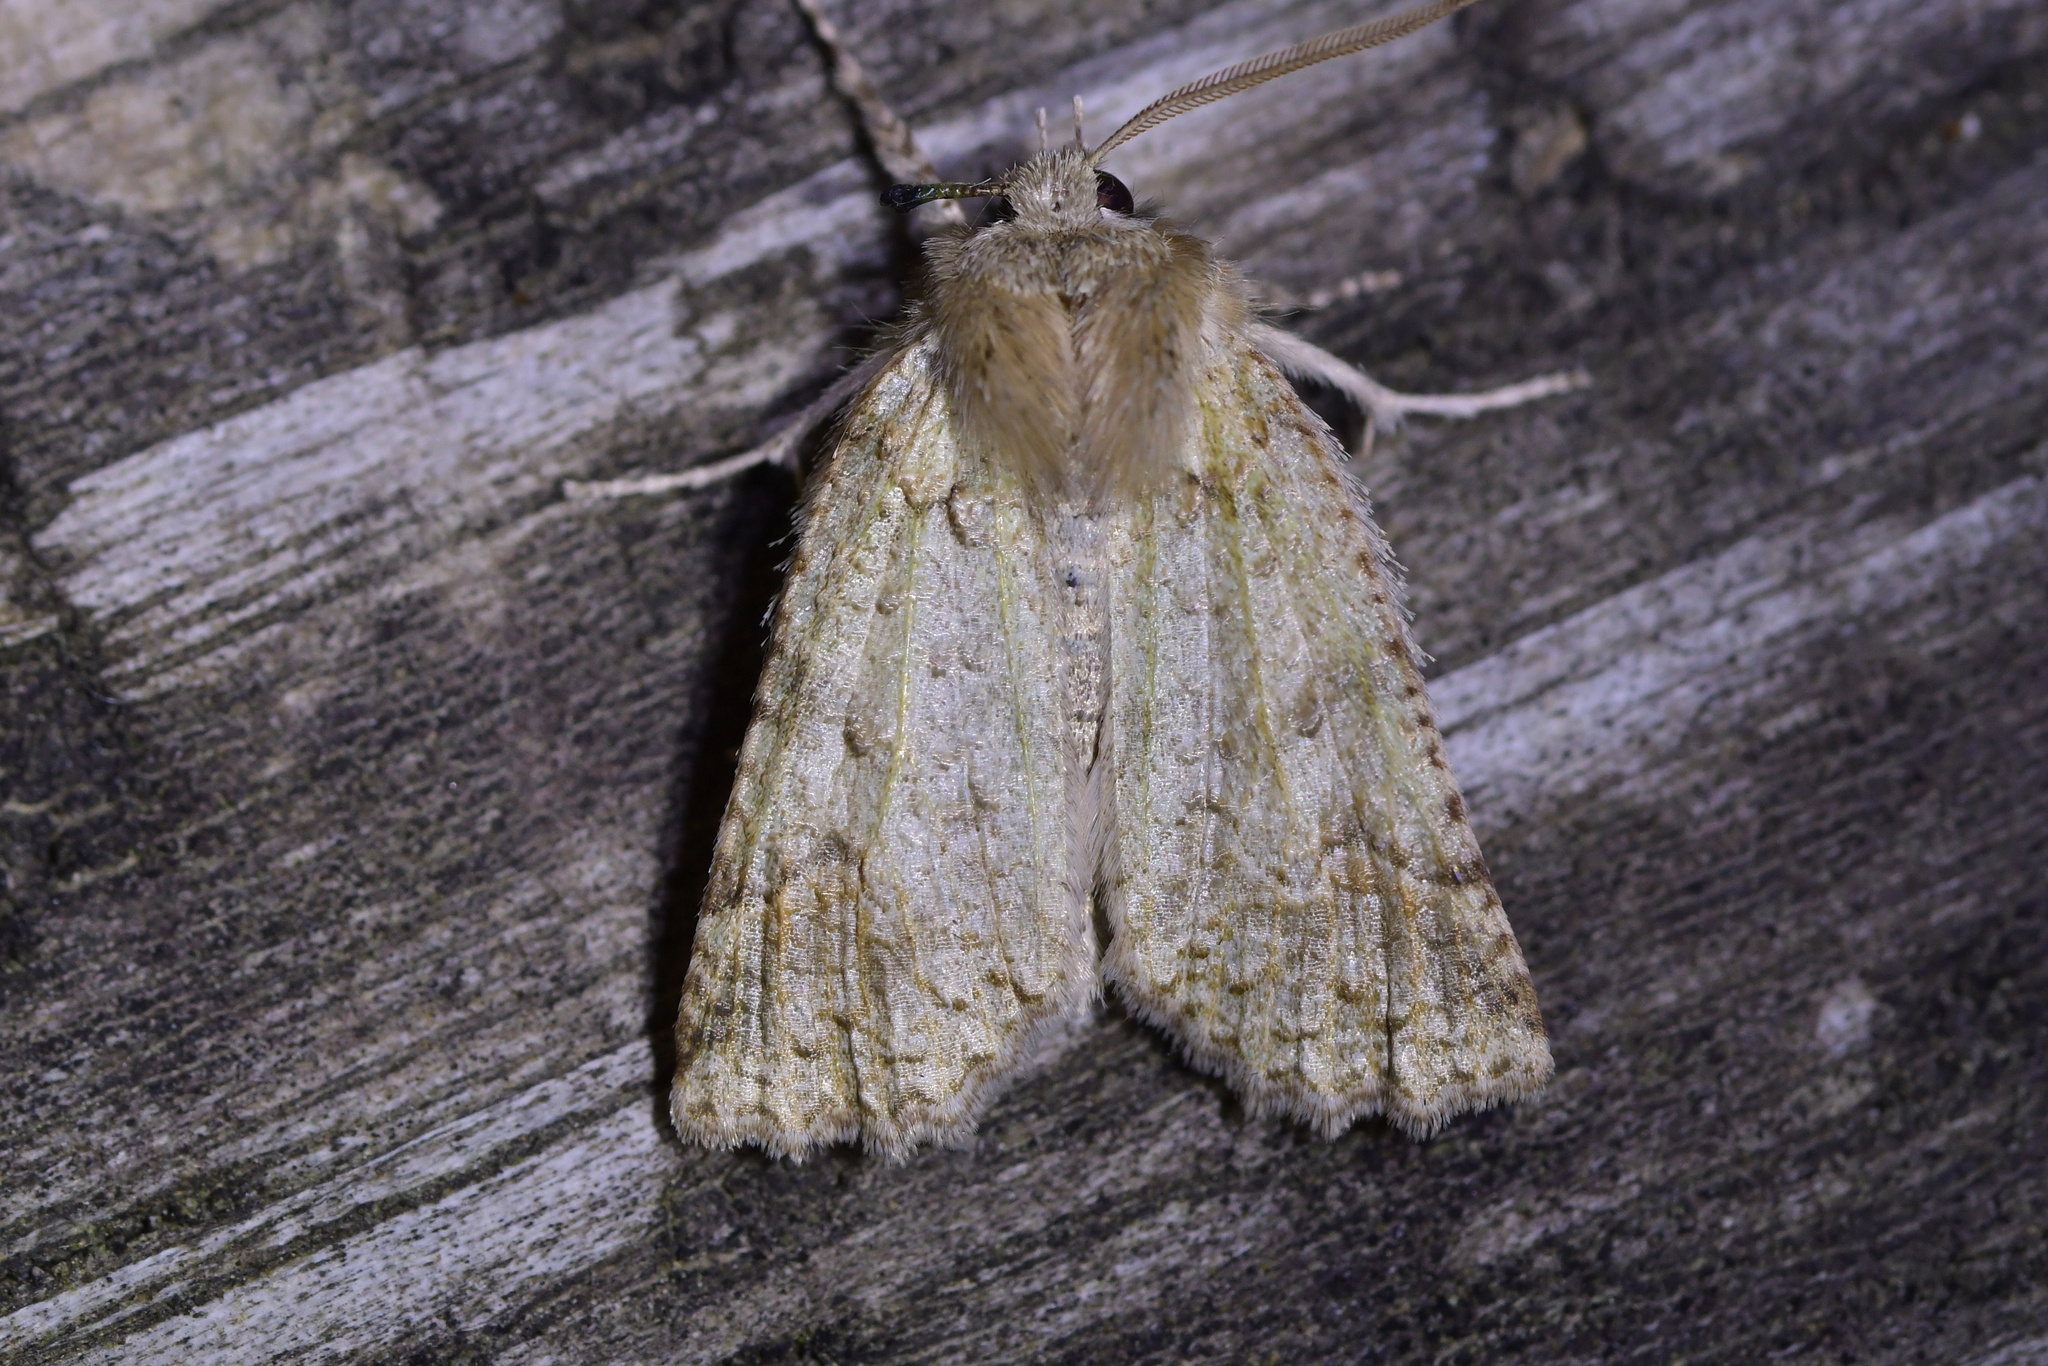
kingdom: Animalia
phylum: Arthropoda
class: Insecta
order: Lepidoptera
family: Geometridae
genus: Declana
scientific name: Declana floccosa
